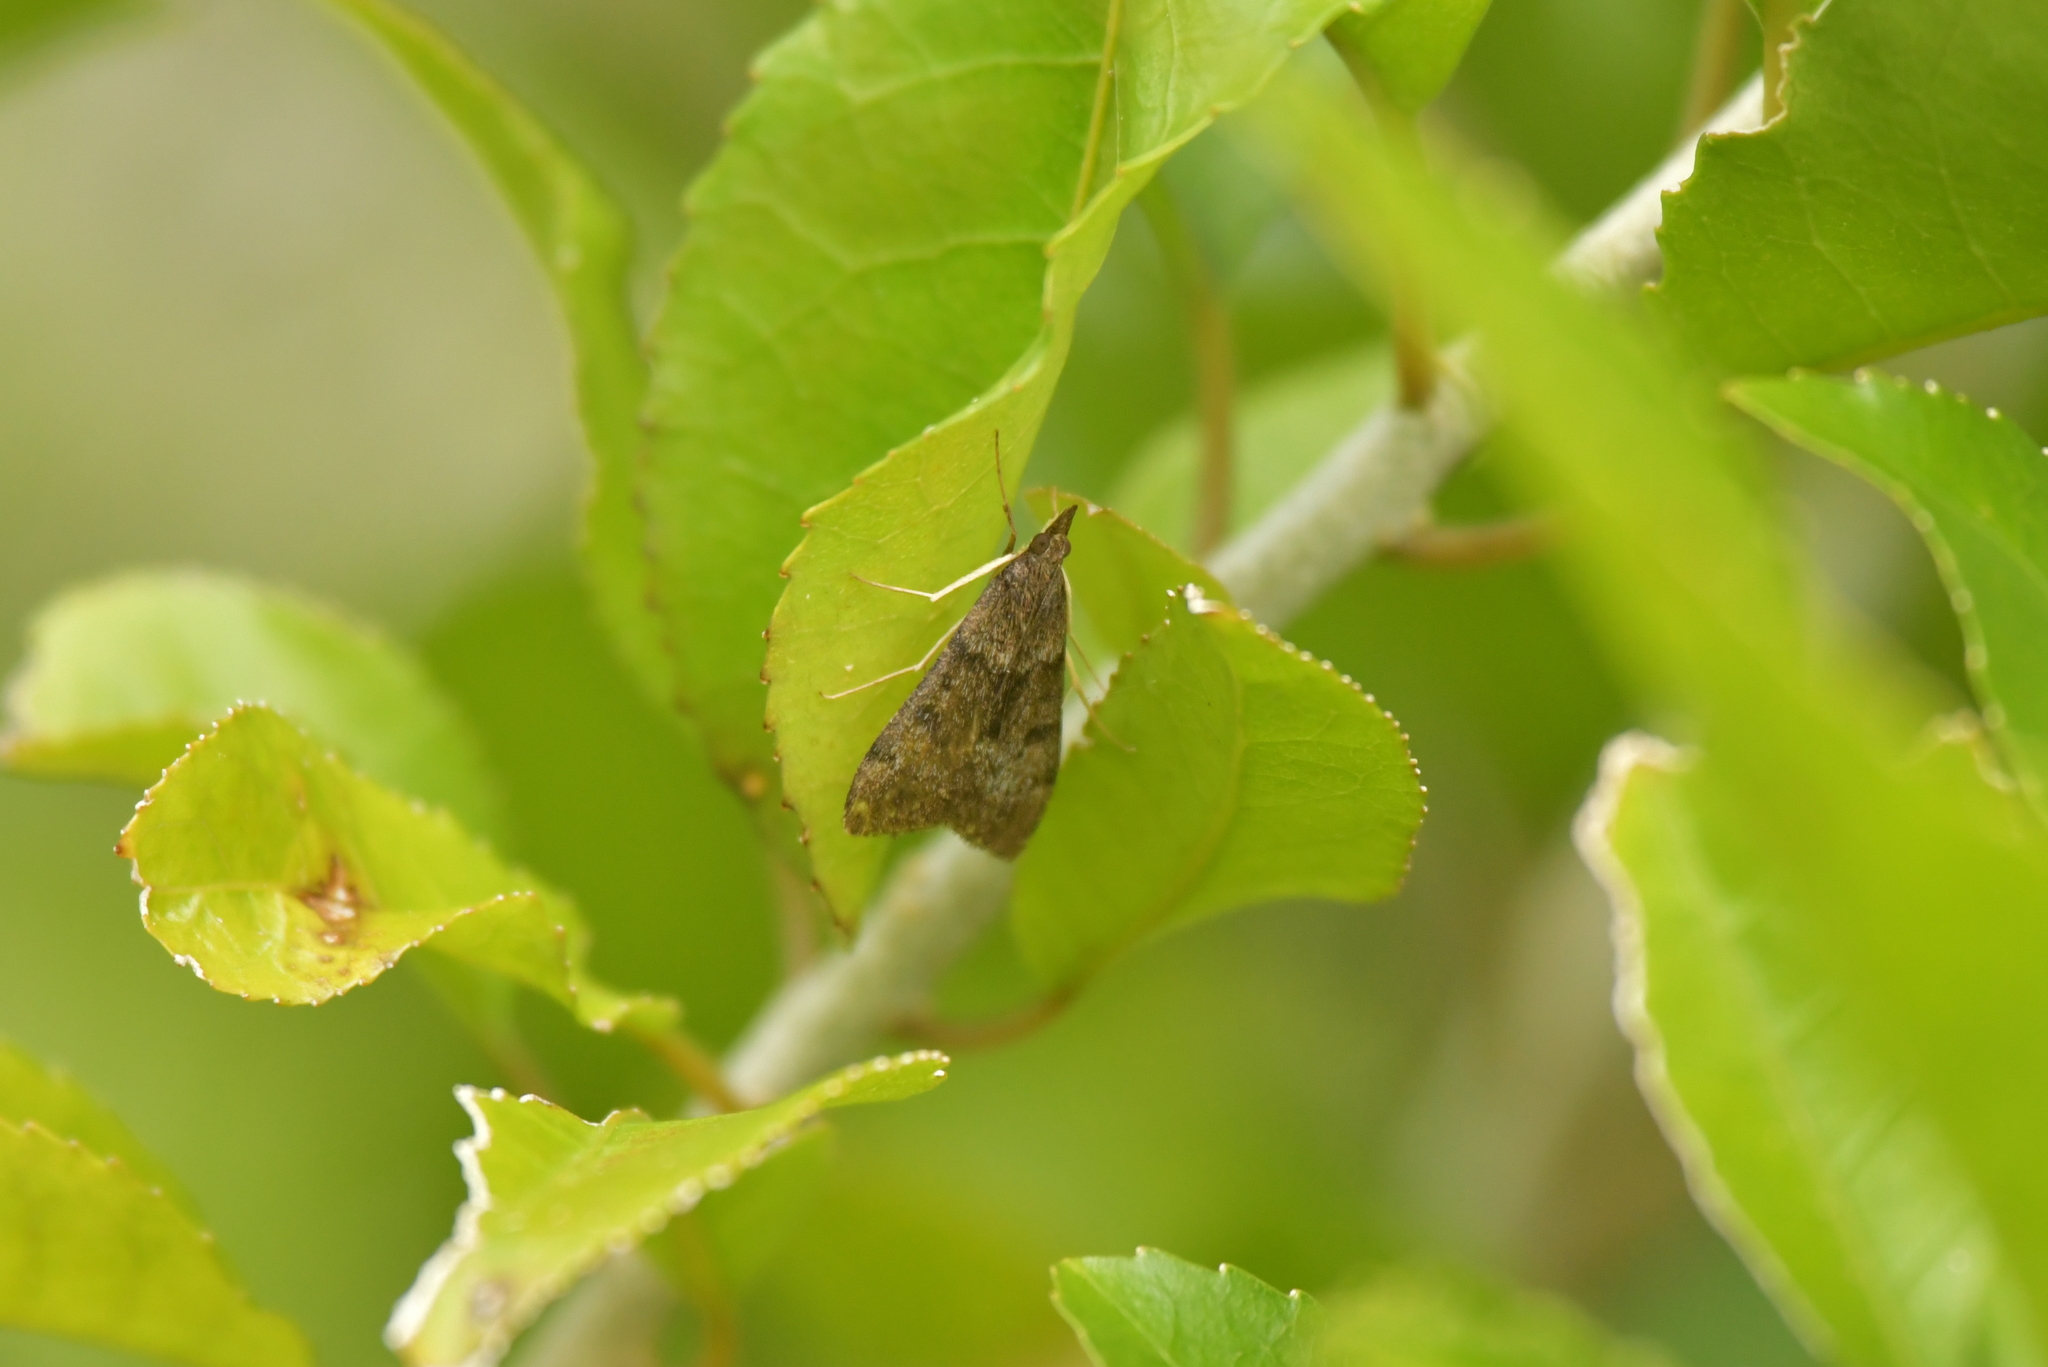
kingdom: Animalia
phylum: Arthropoda
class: Insecta
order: Lepidoptera
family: Crambidae
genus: Uresiphita
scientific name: Uresiphita
